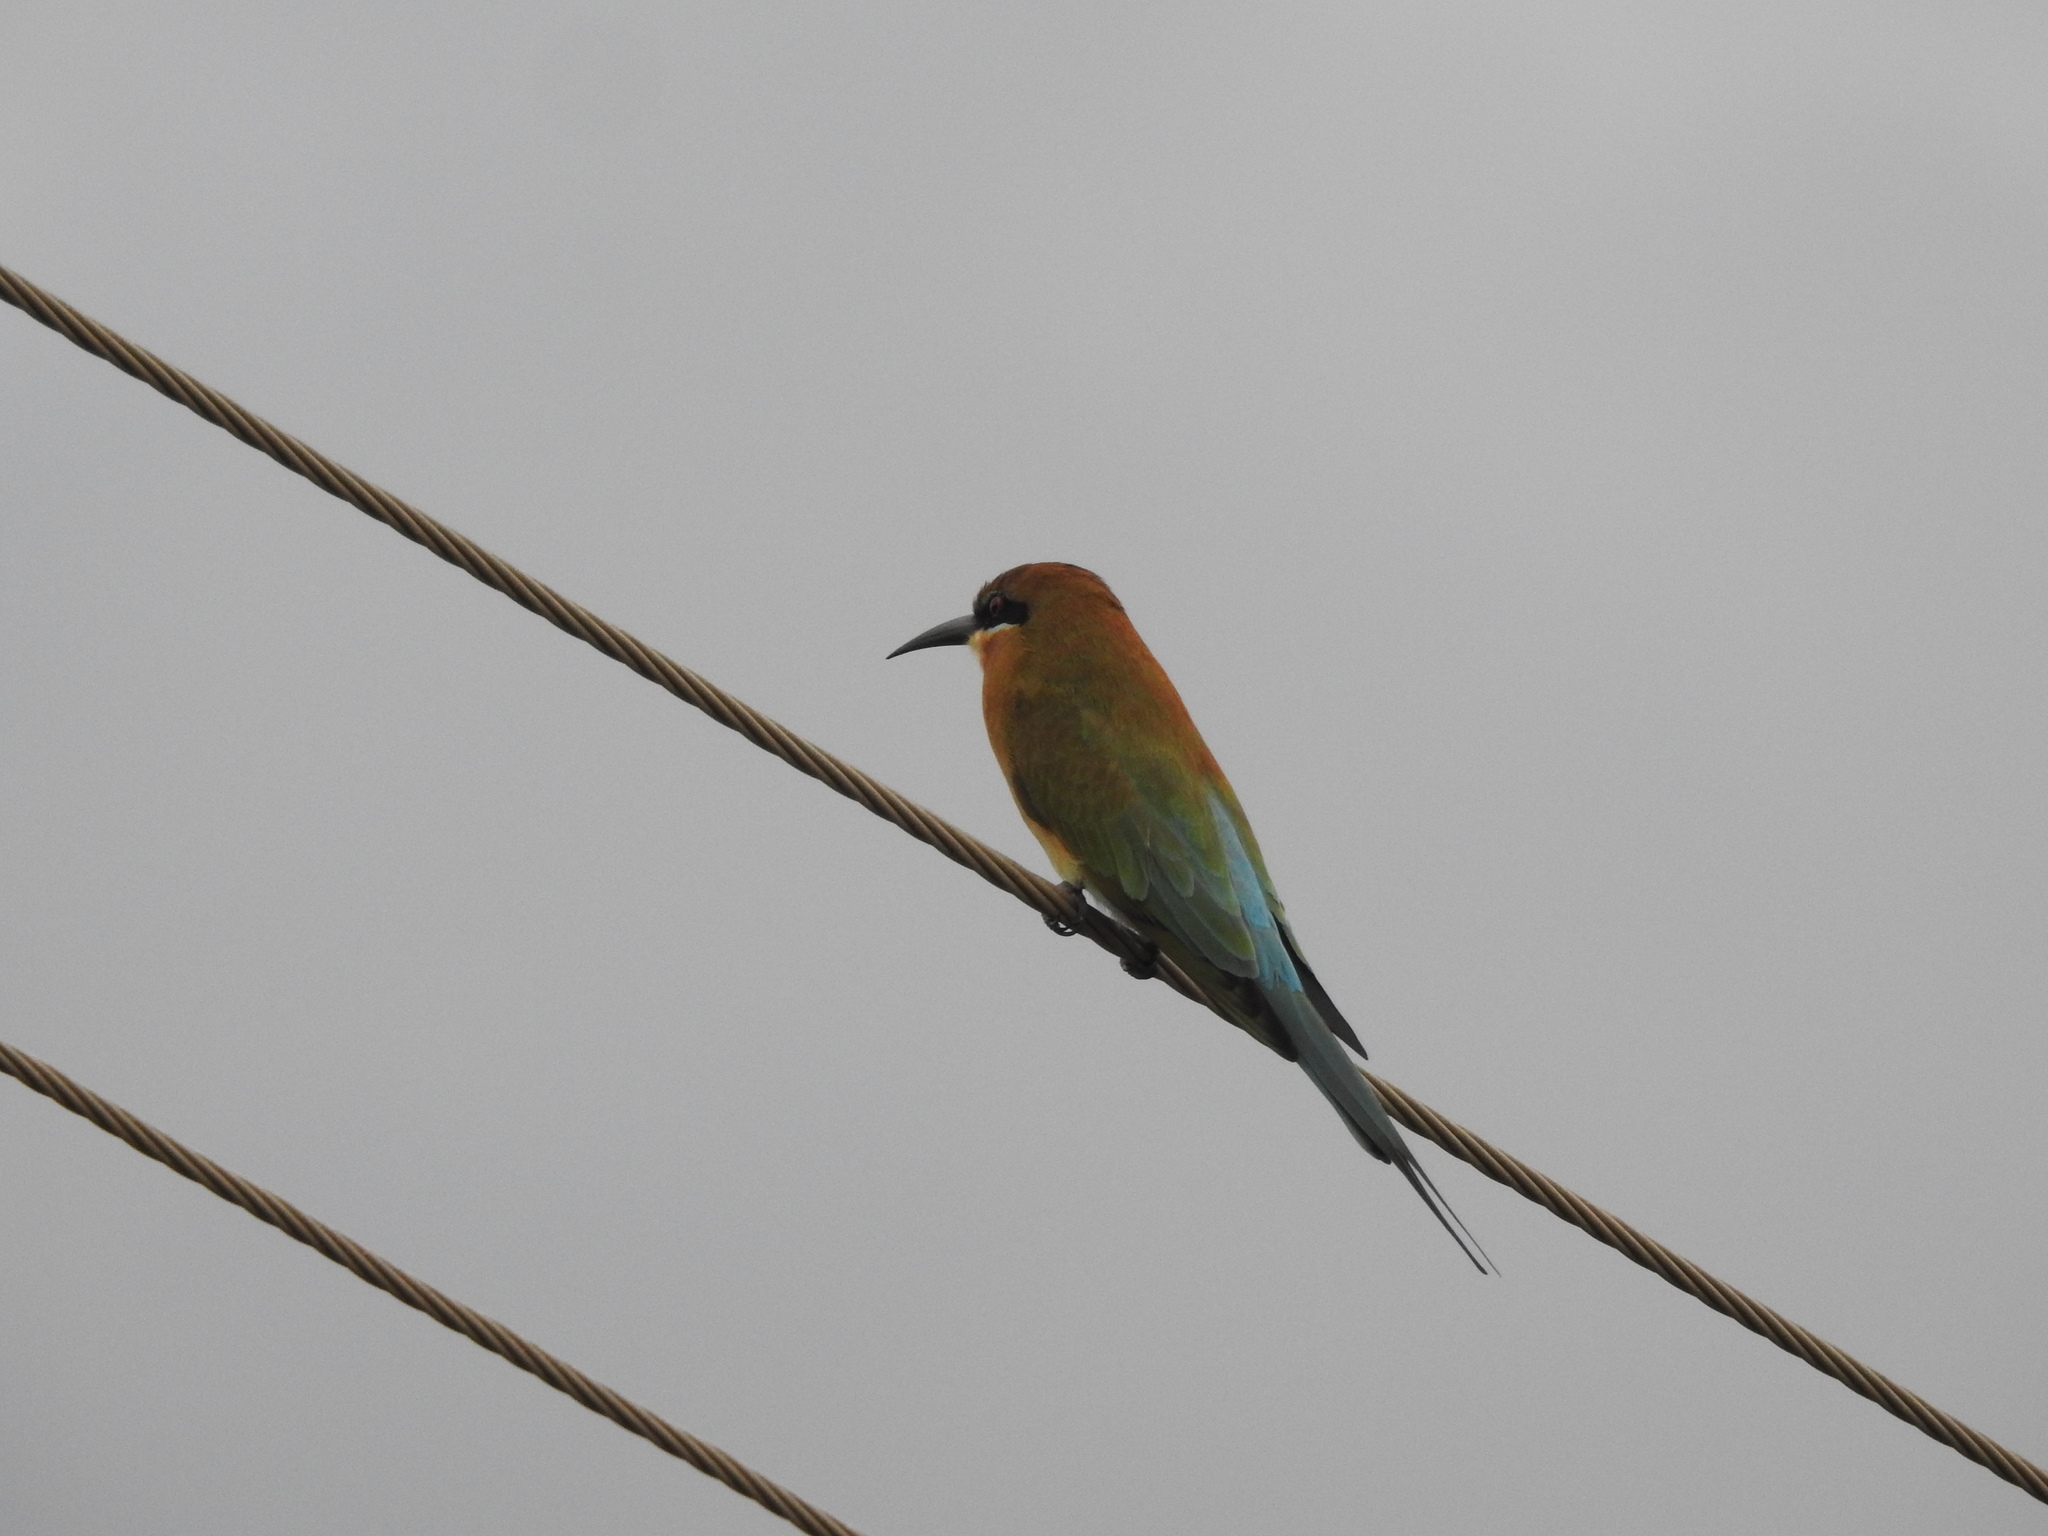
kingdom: Animalia
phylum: Chordata
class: Aves
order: Coraciiformes
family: Meropidae
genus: Merops
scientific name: Merops philippinus
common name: Blue-tailed bee-eater
